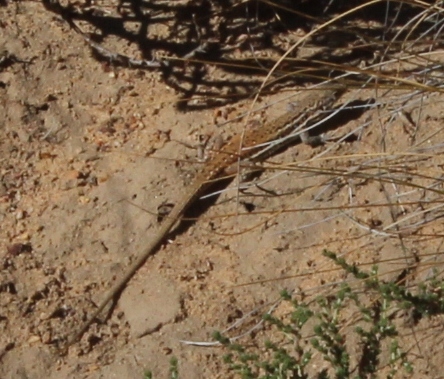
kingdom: Animalia
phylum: Chordata
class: Squamata
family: Lacertidae
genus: Pedioplanis
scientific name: Pedioplanis lineoocellata
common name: Spotted sand lizard
